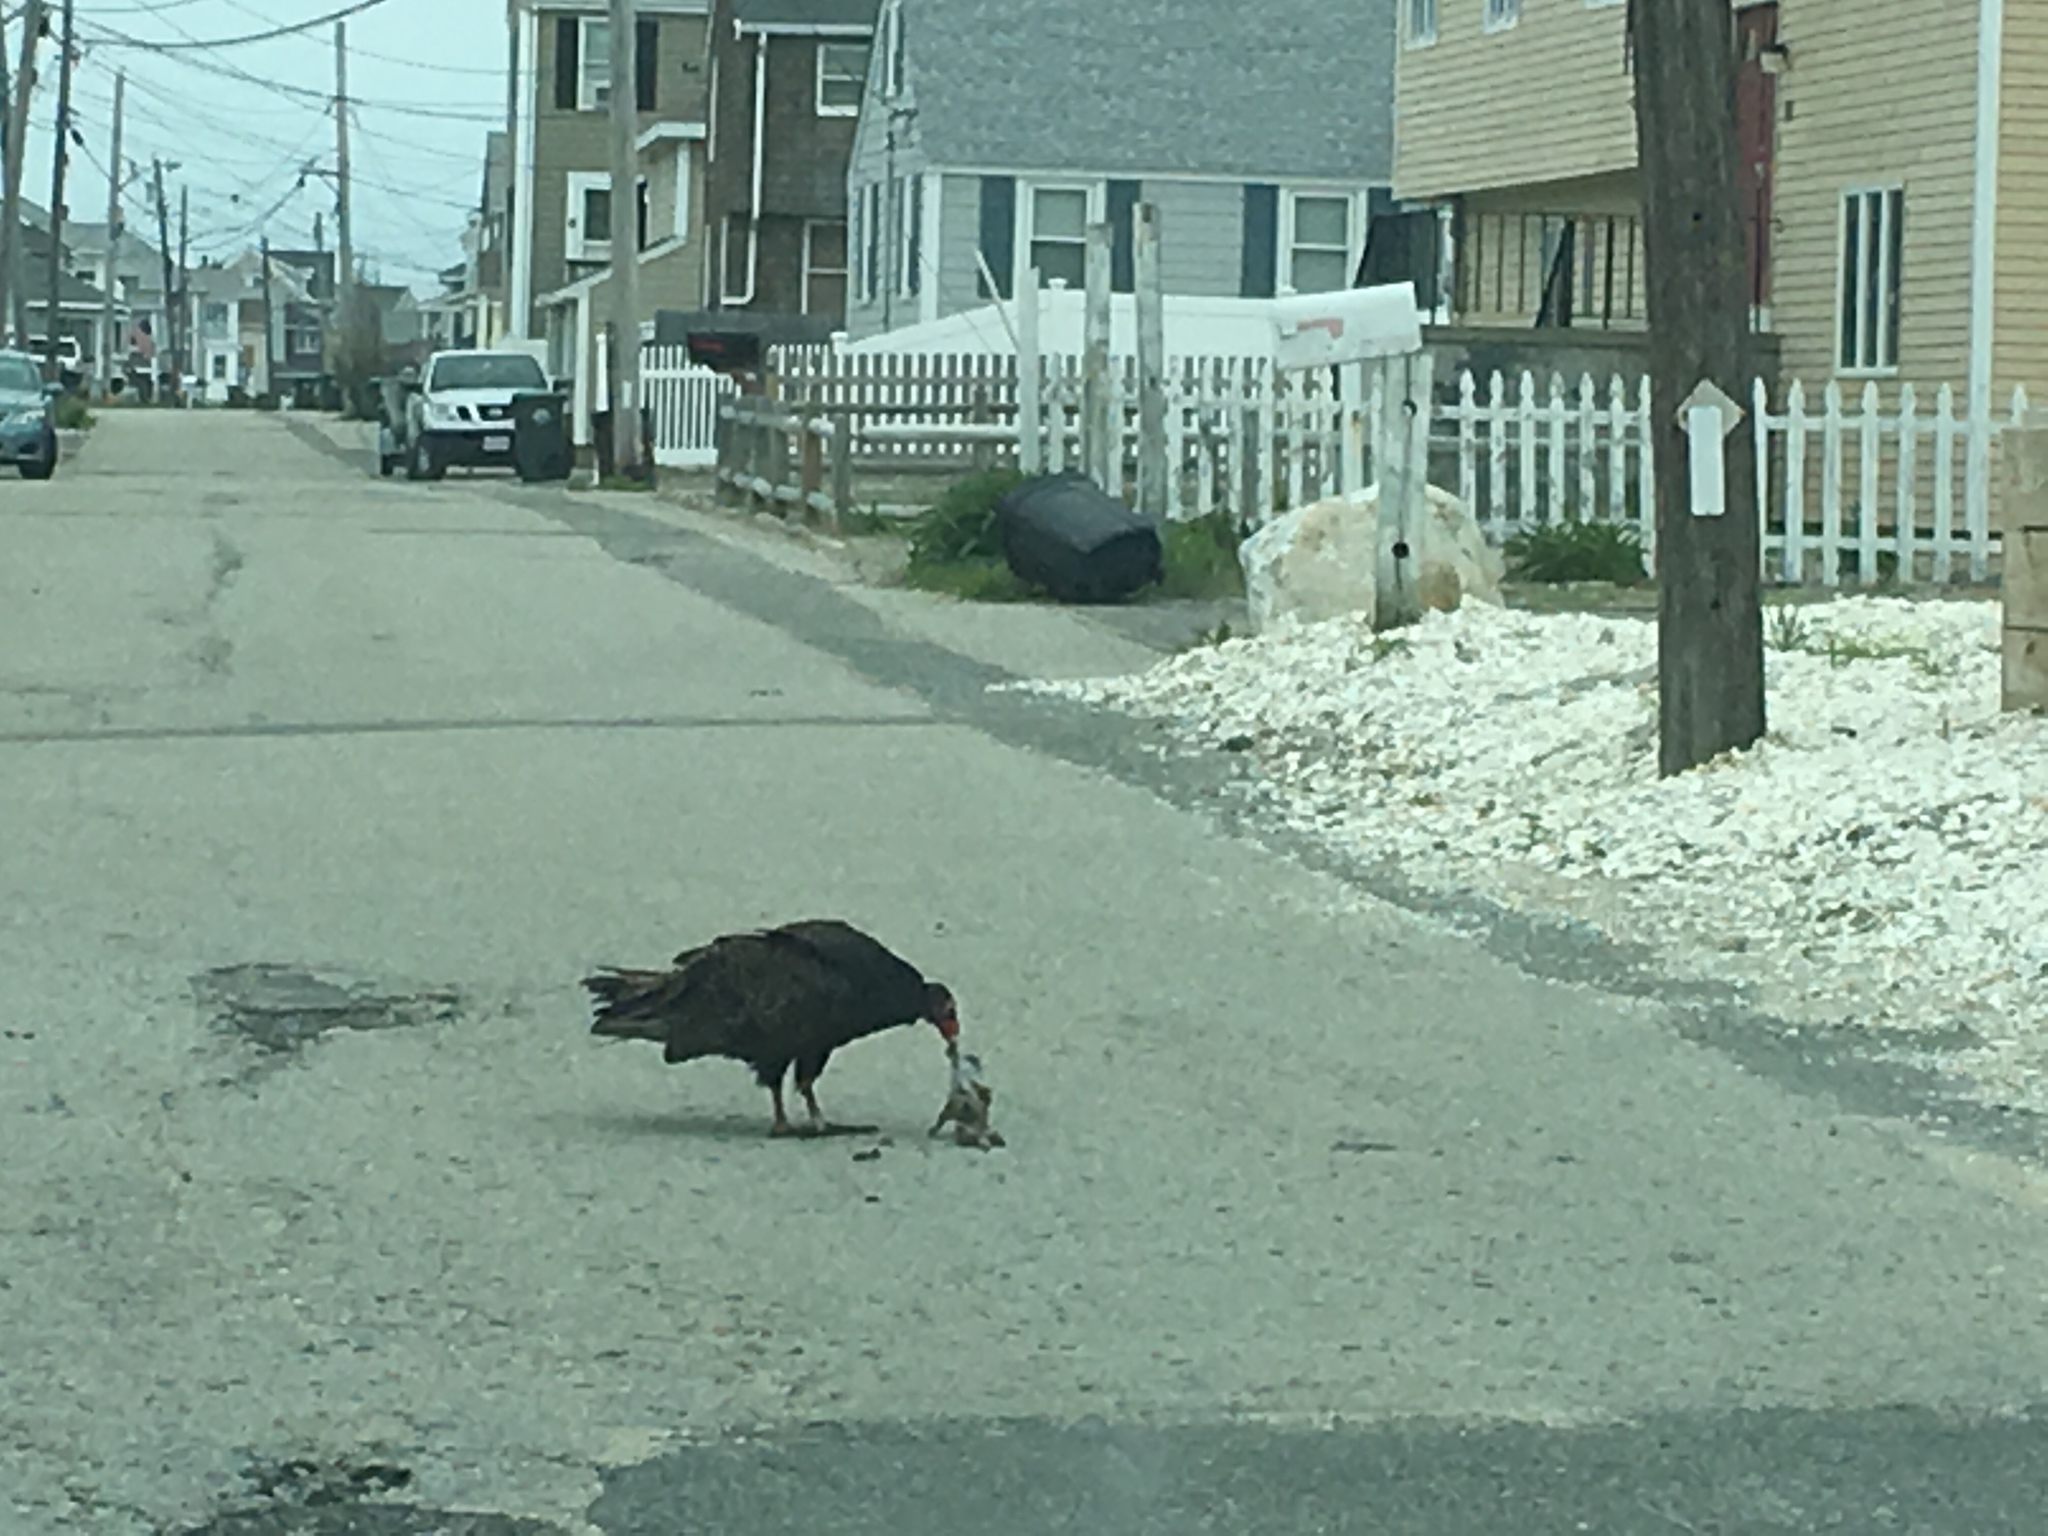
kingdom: Animalia
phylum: Chordata
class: Aves
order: Accipitriformes
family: Cathartidae
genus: Cathartes
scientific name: Cathartes aura
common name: Turkey vulture
